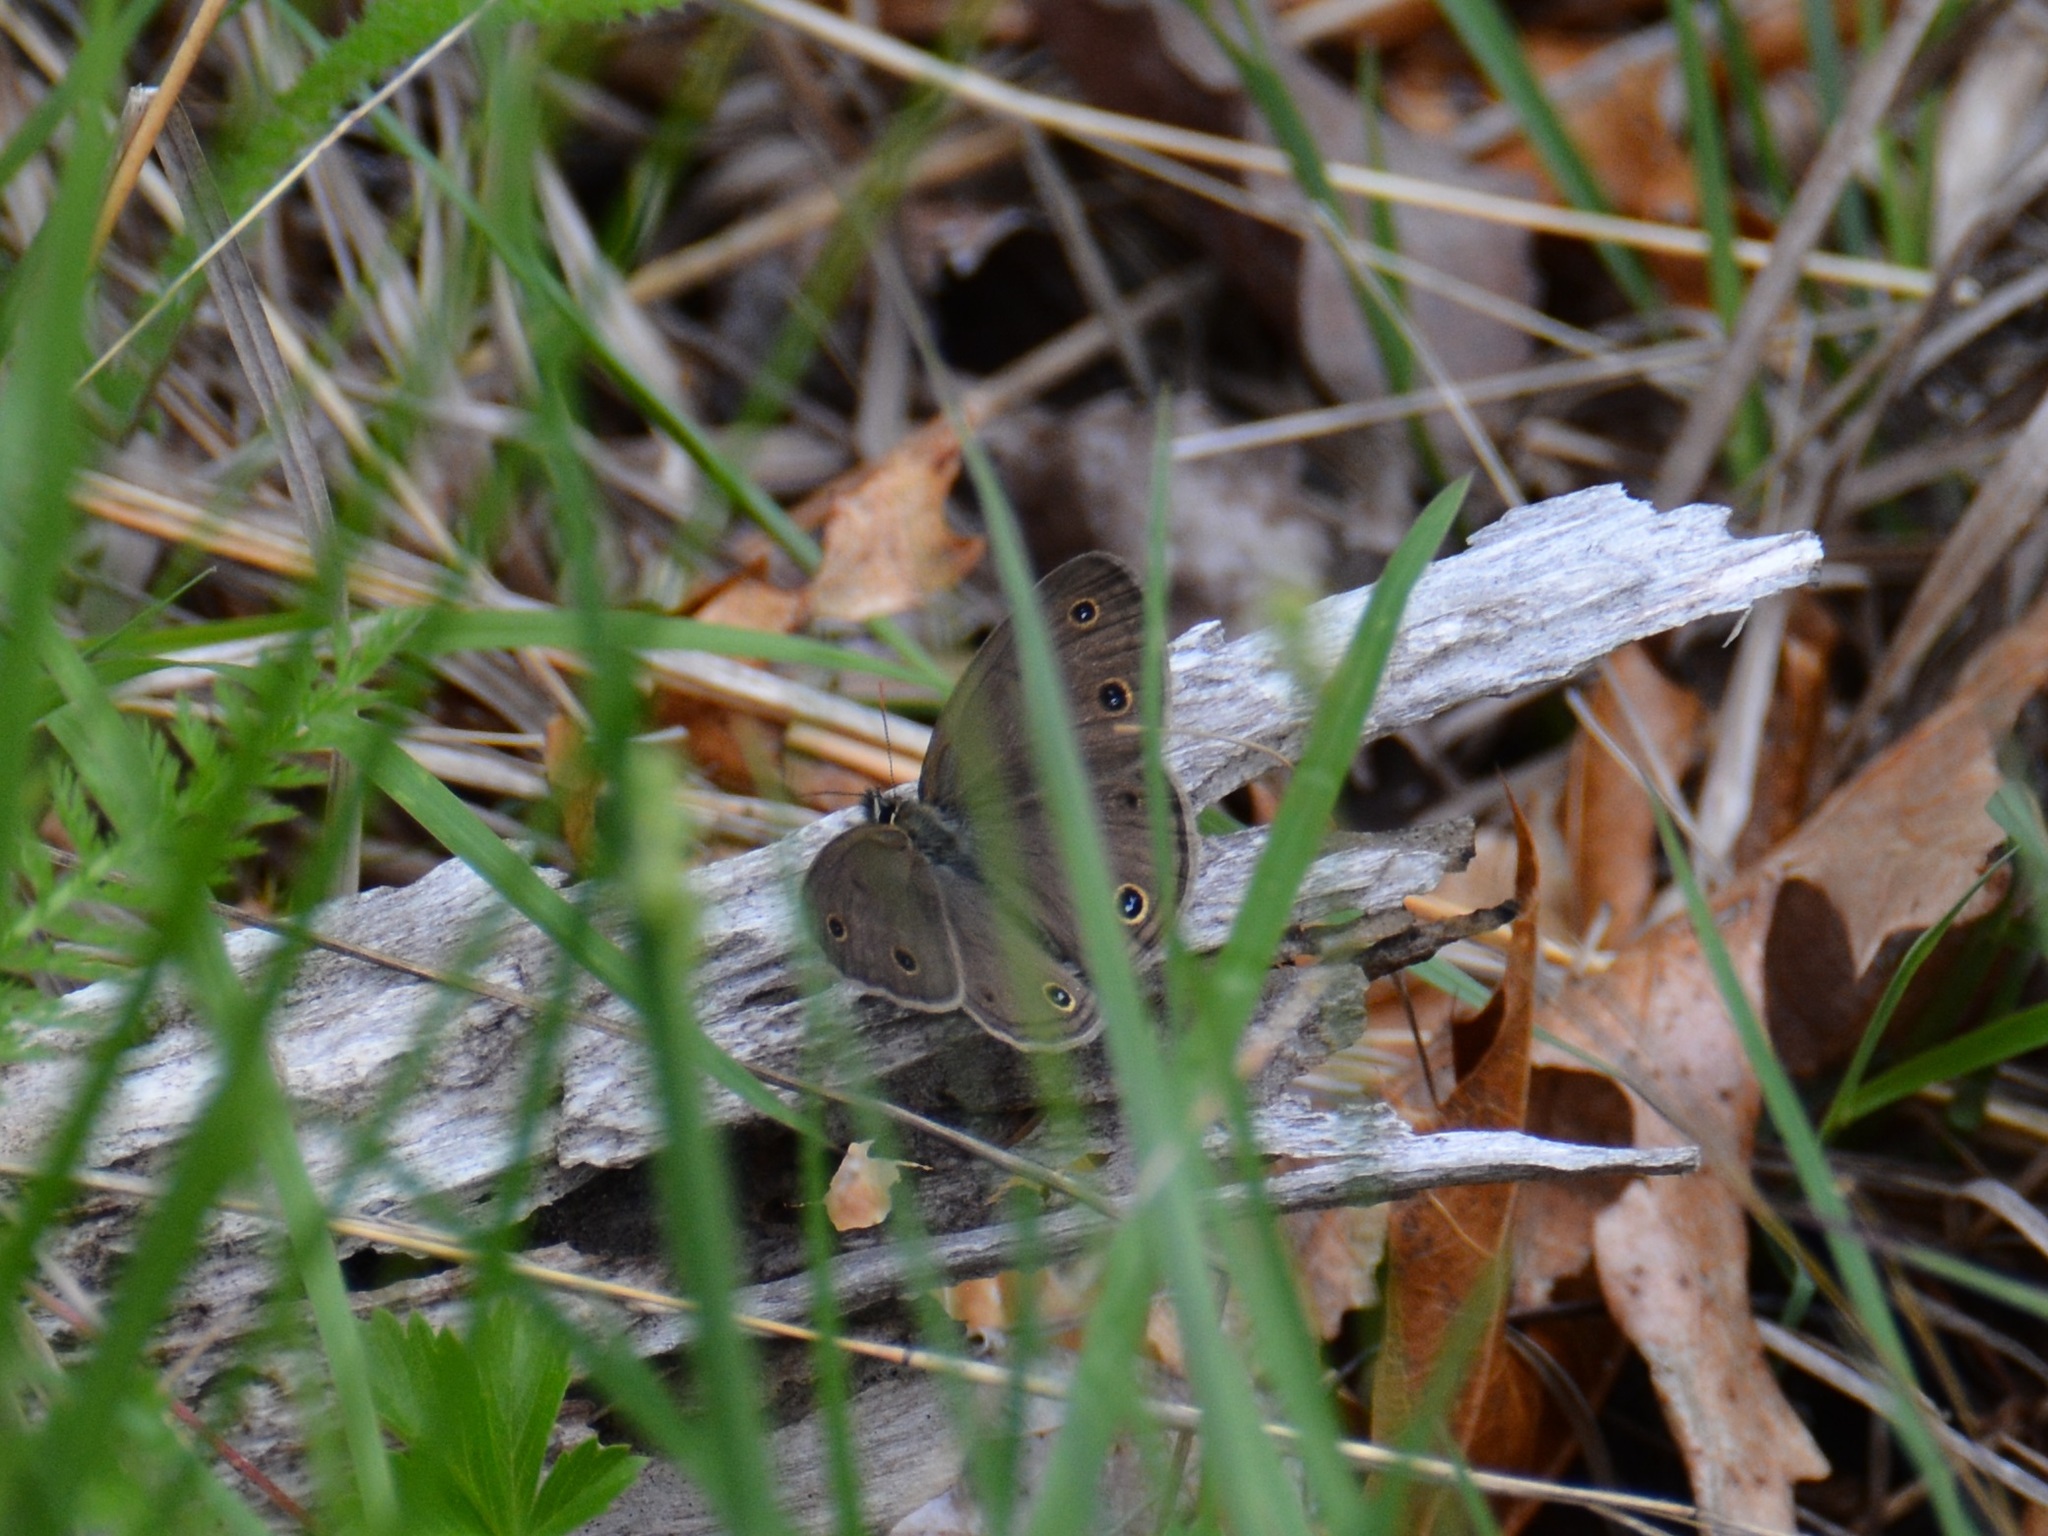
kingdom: Animalia
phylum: Arthropoda
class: Insecta
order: Lepidoptera
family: Nymphalidae
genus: Euptychia
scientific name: Euptychia cymela
